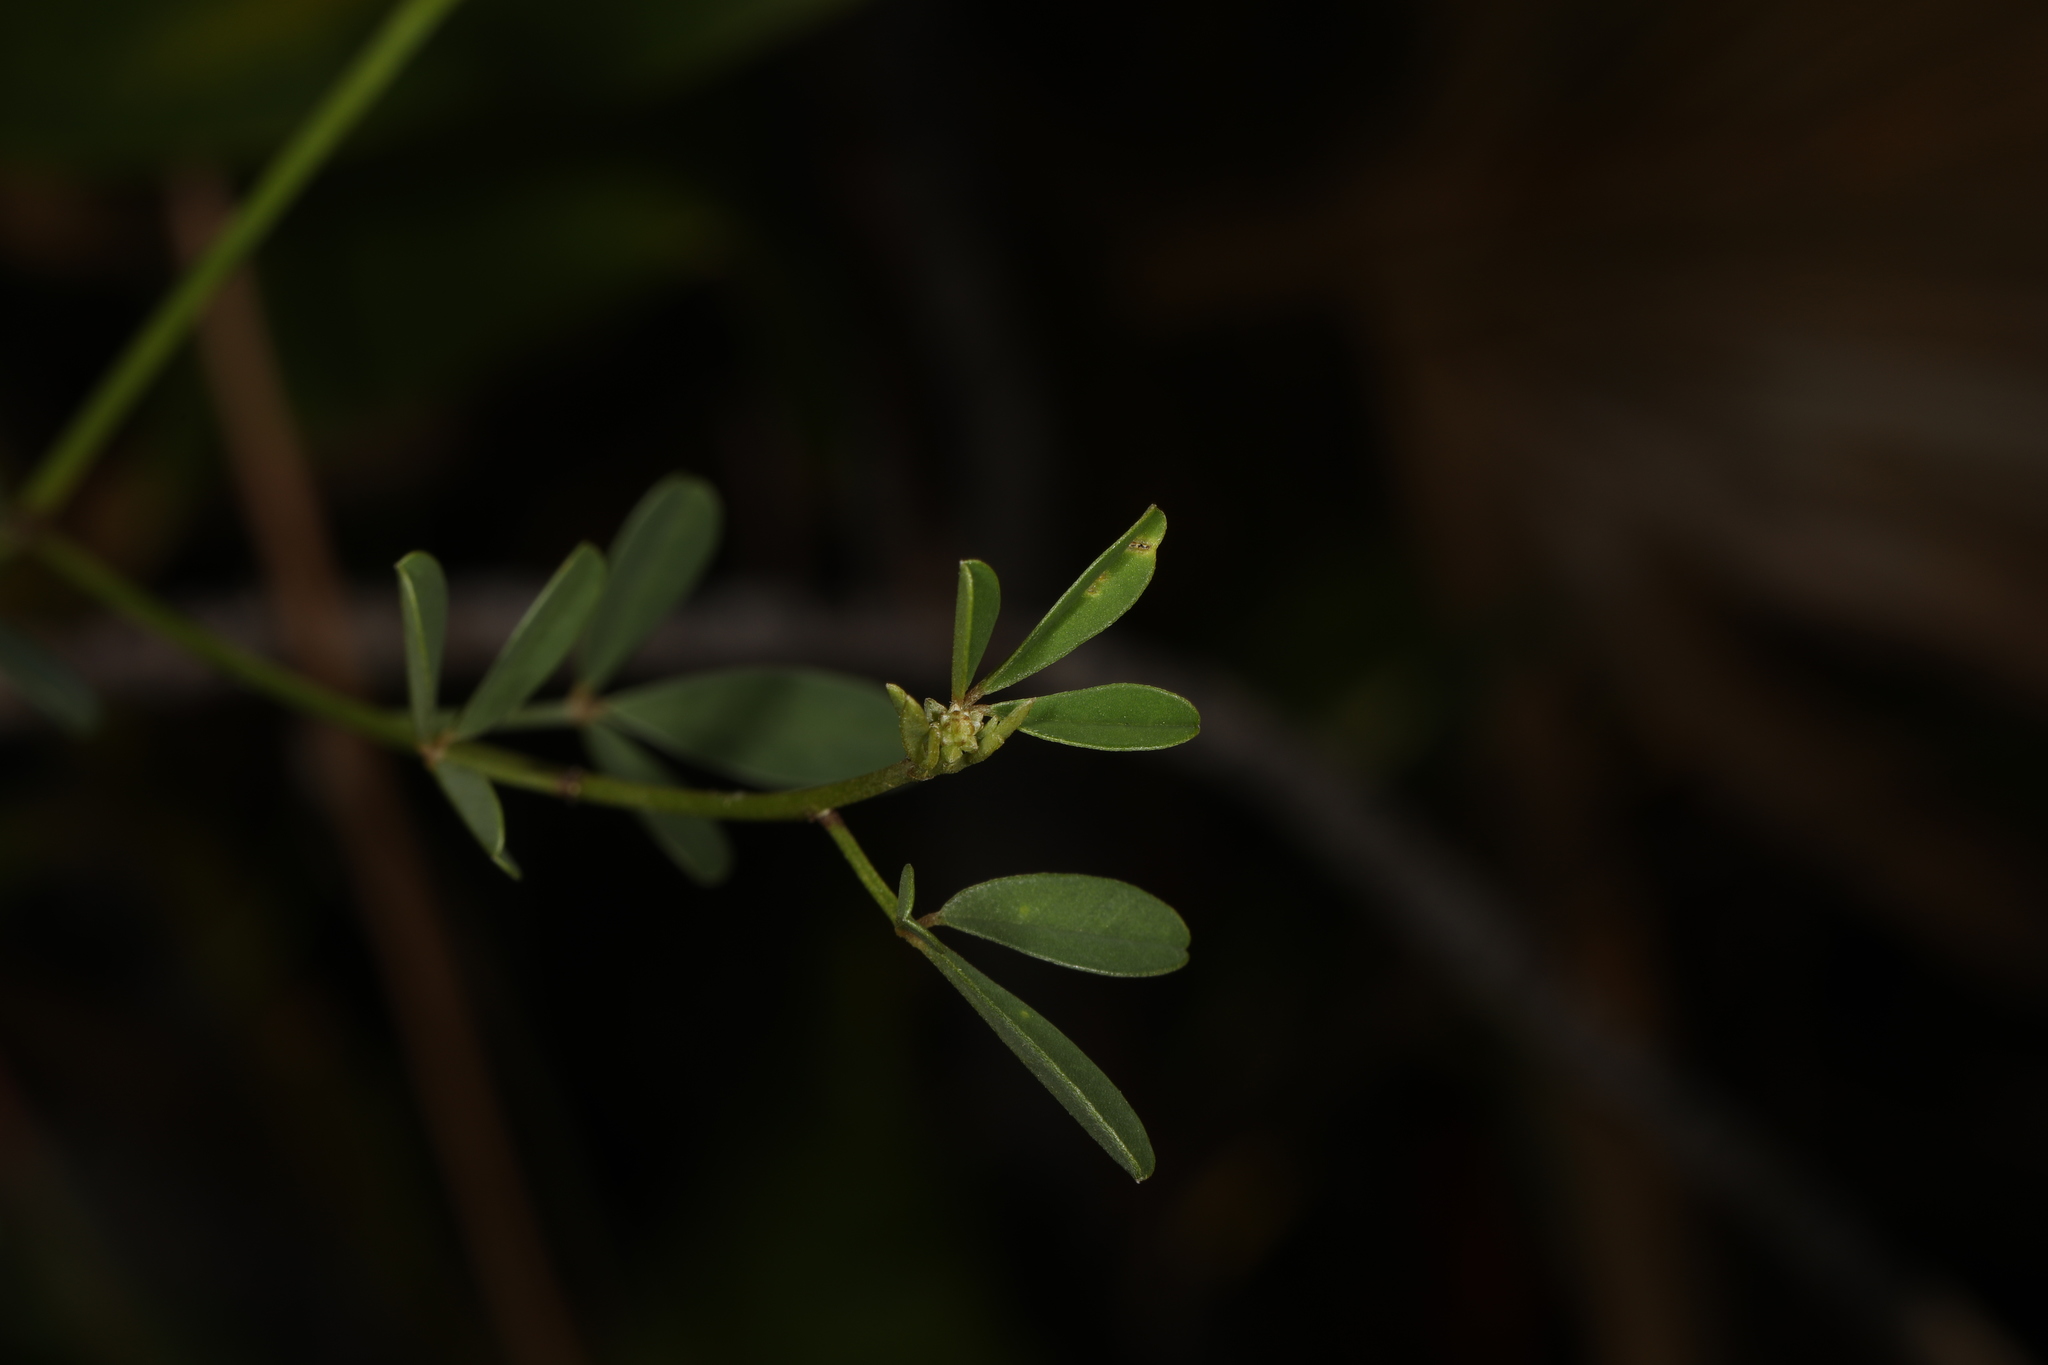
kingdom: Plantae
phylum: Tracheophyta
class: Magnoliopsida
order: Fabales
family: Fabaceae
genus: Crotalaria
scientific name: Crotalaria pumila
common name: Low rattlebox
